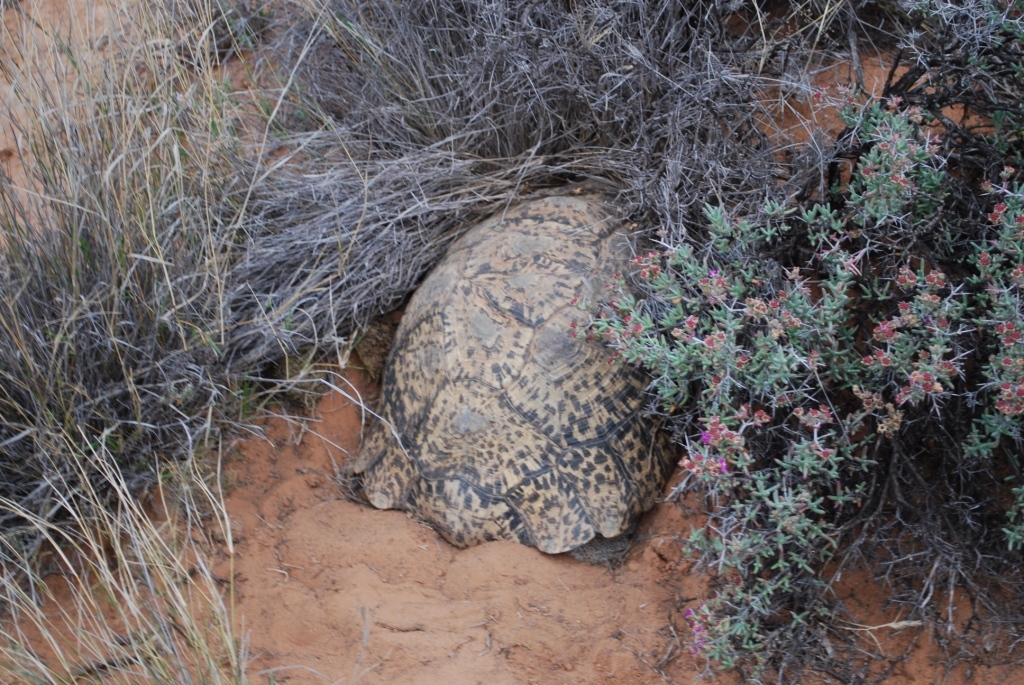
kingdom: Animalia
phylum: Chordata
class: Testudines
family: Testudinidae
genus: Stigmochelys
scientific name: Stigmochelys pardalis
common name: Leopard tortoise
